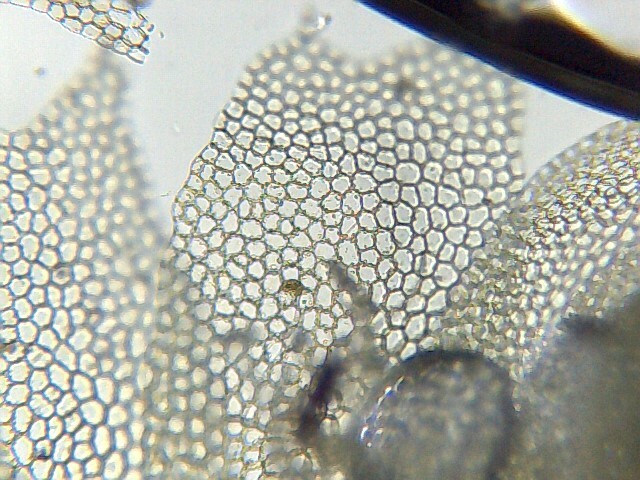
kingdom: Plantae
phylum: Marchantiophyta
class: Jungermanniopsida
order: Jungermanniales
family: Lophocoleaceae
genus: Lophocolea
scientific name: Lophocolea heterophylla
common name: Variable-leaved crestwort
